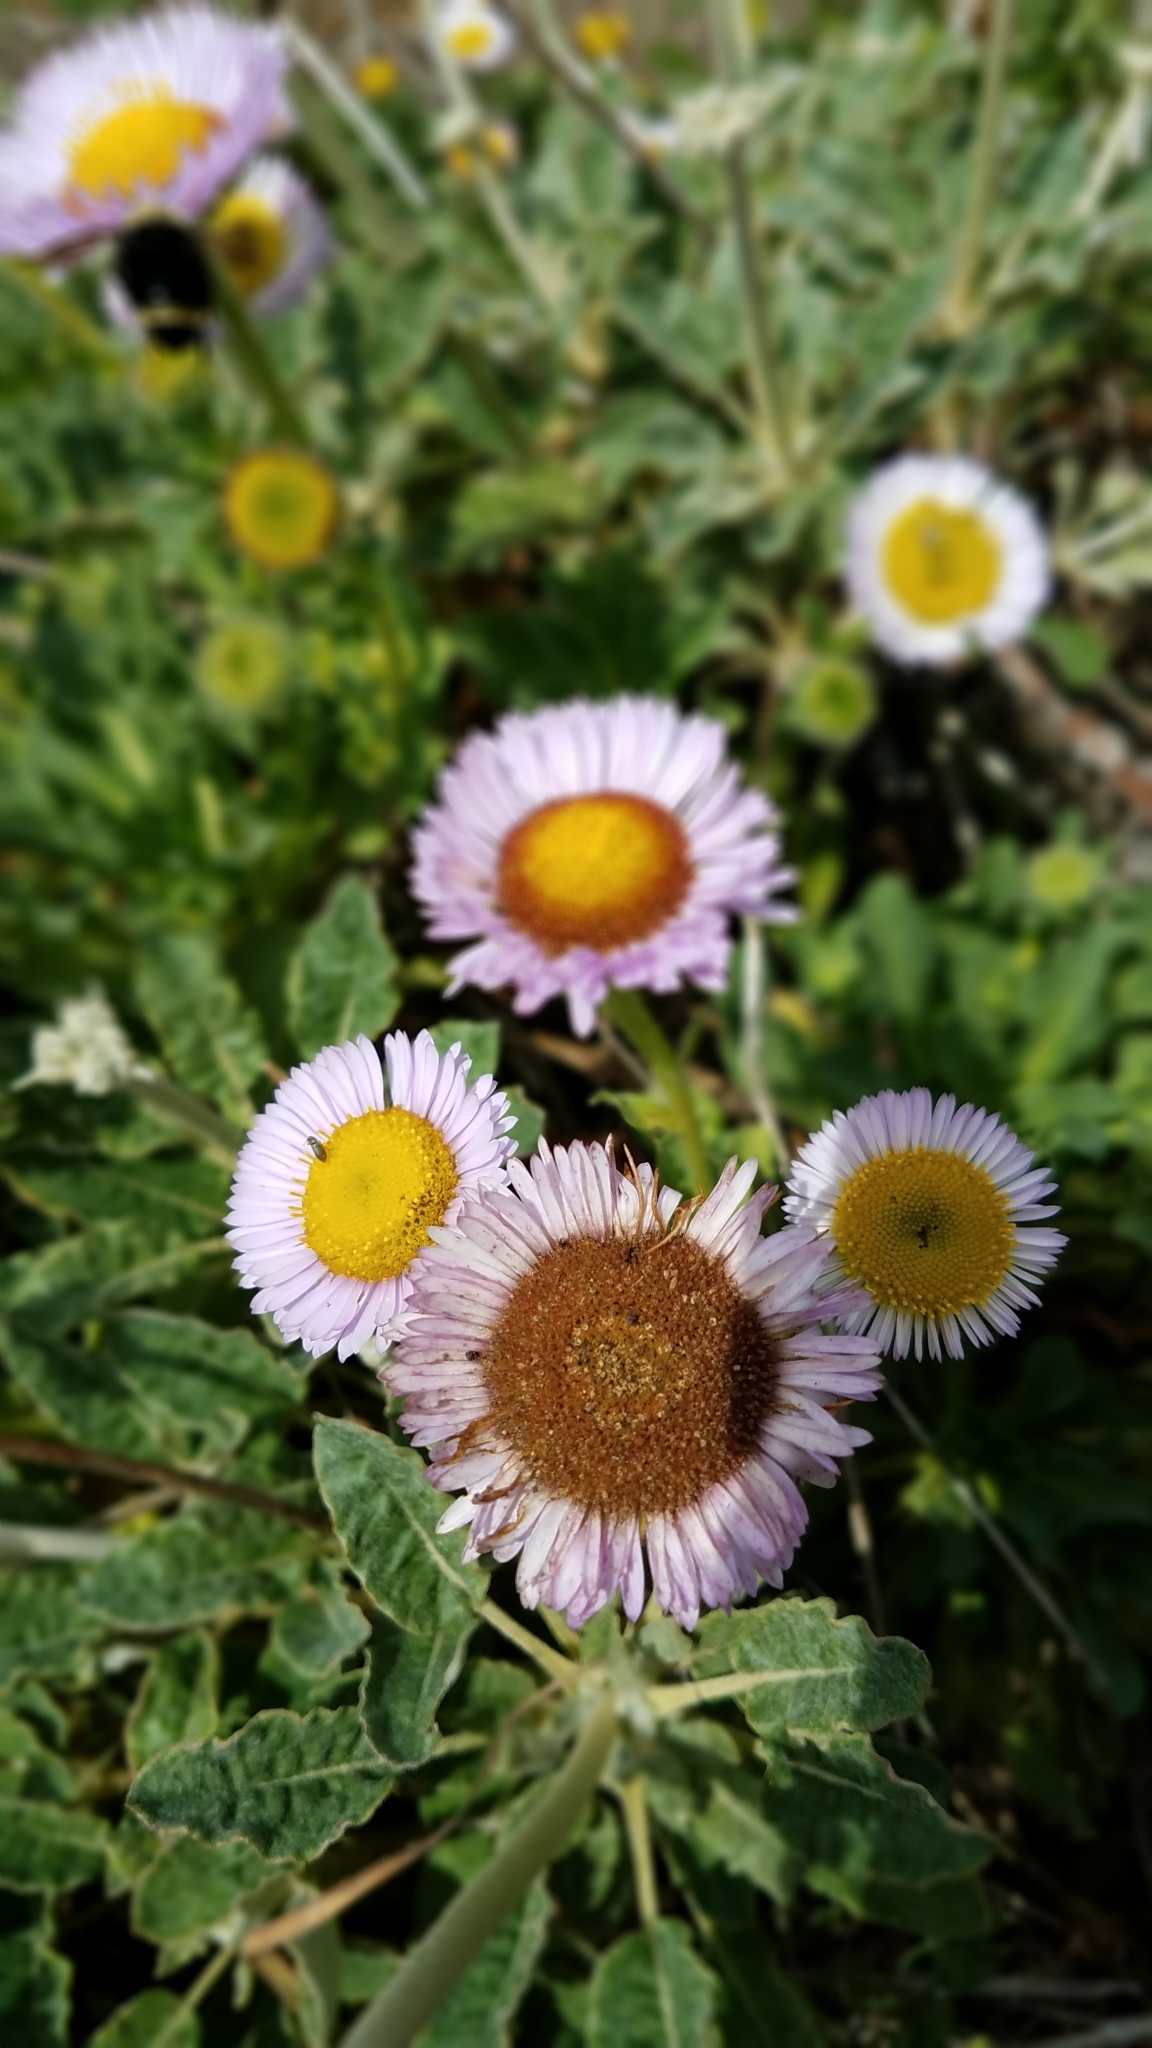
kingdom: Plantae
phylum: Tracheophyta
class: Magnoliopsida
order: Asterales
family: Asteraceae
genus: Erigeron
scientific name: Erigeron glaucus
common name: Seaside daisy
